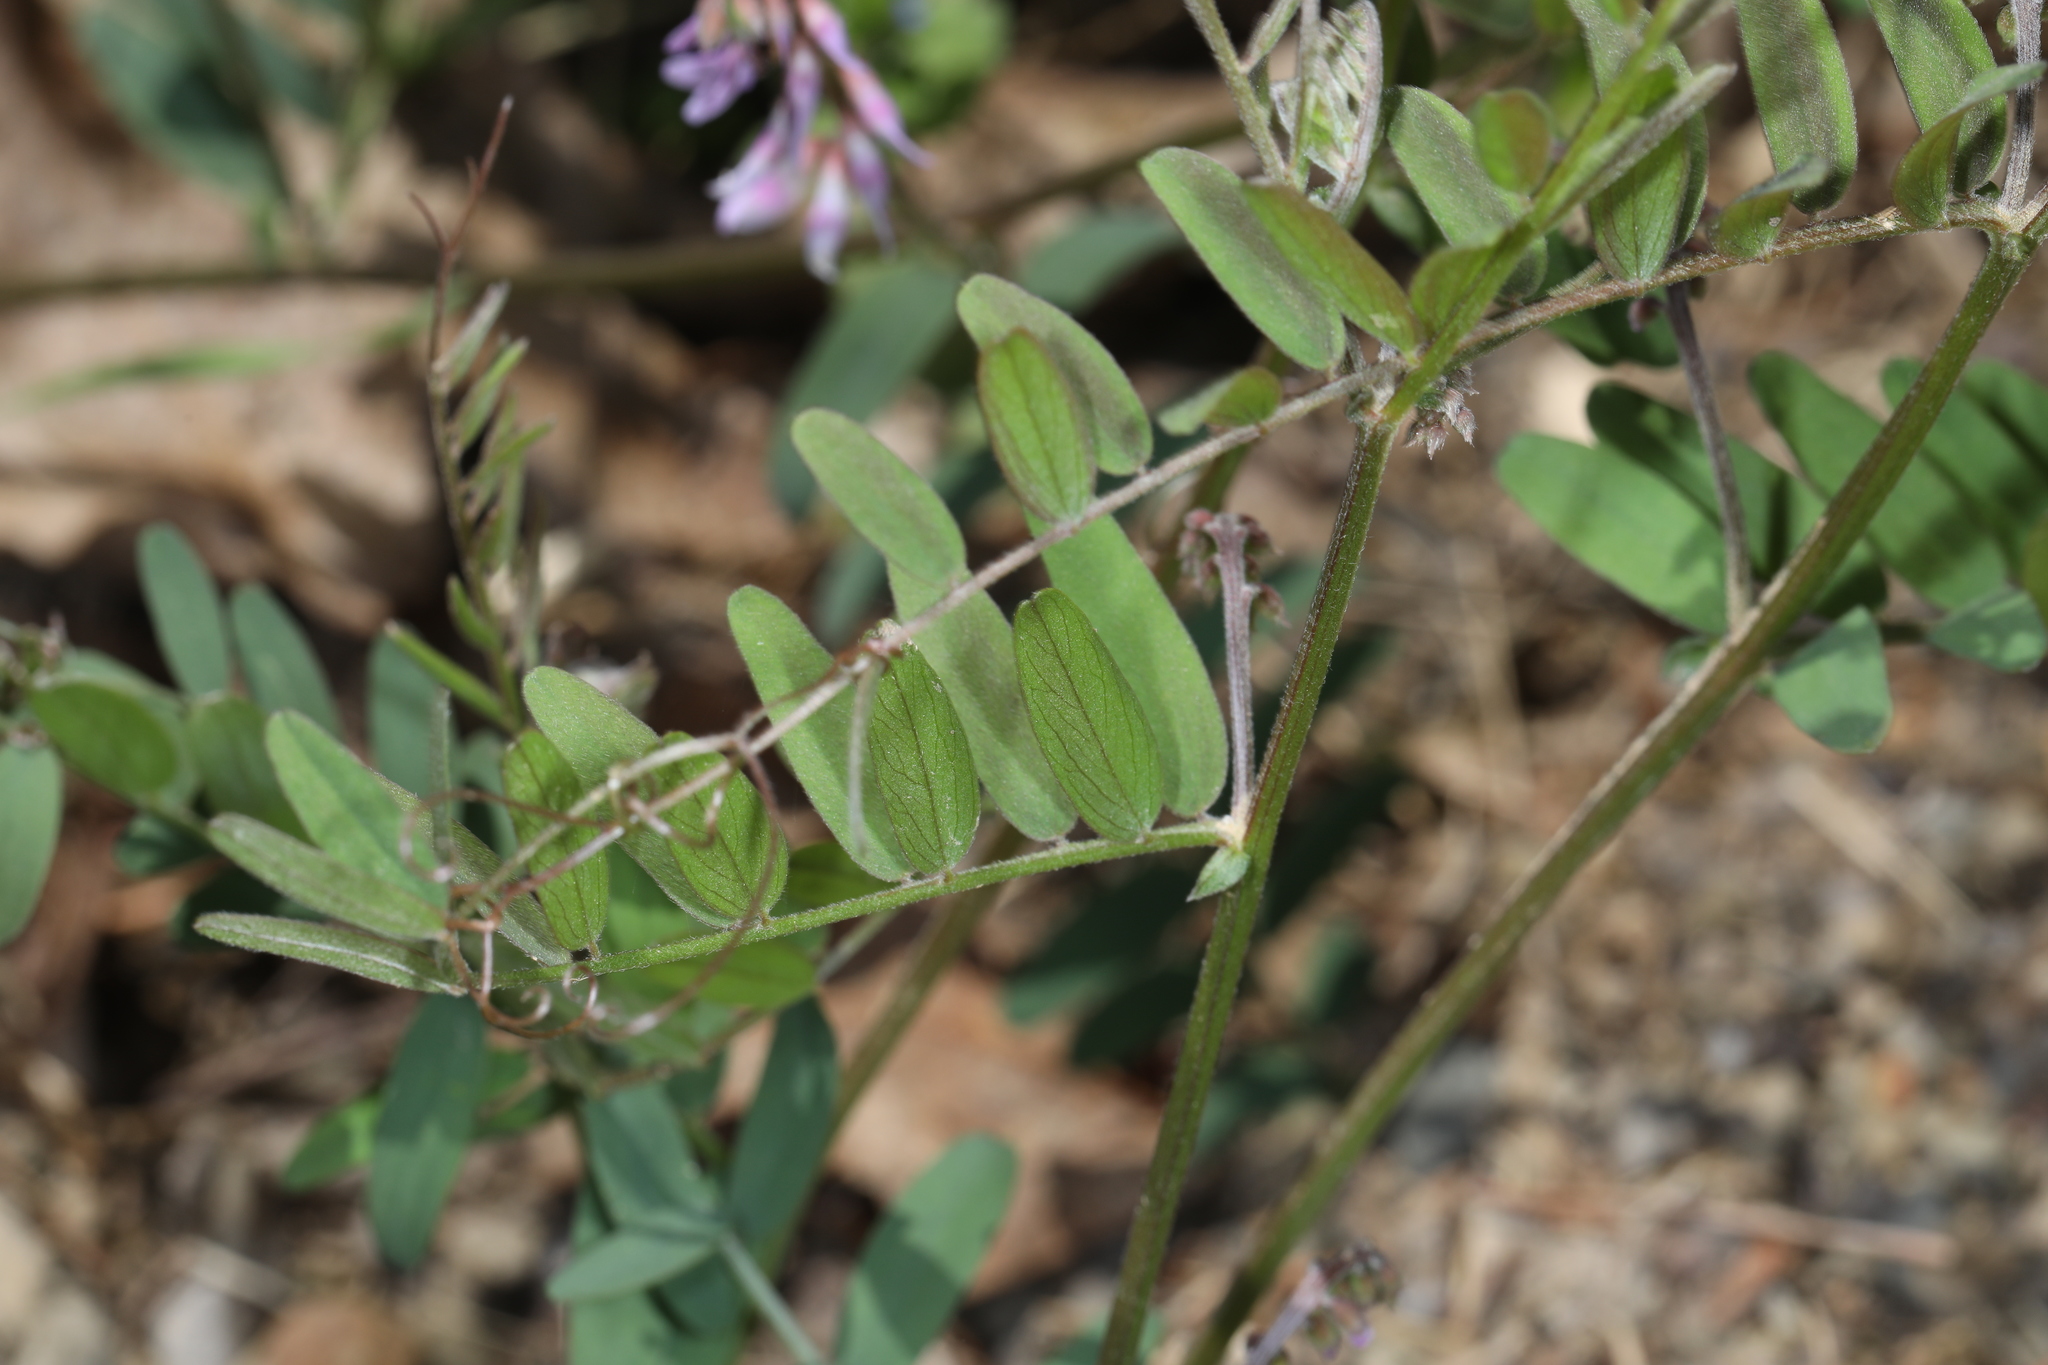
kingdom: Plantae
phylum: Tracheophyta
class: Magnoliopsida
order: Fabales
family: Fabaceae
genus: Vicia
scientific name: Vicia caroliniana
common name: Carolina vetch
